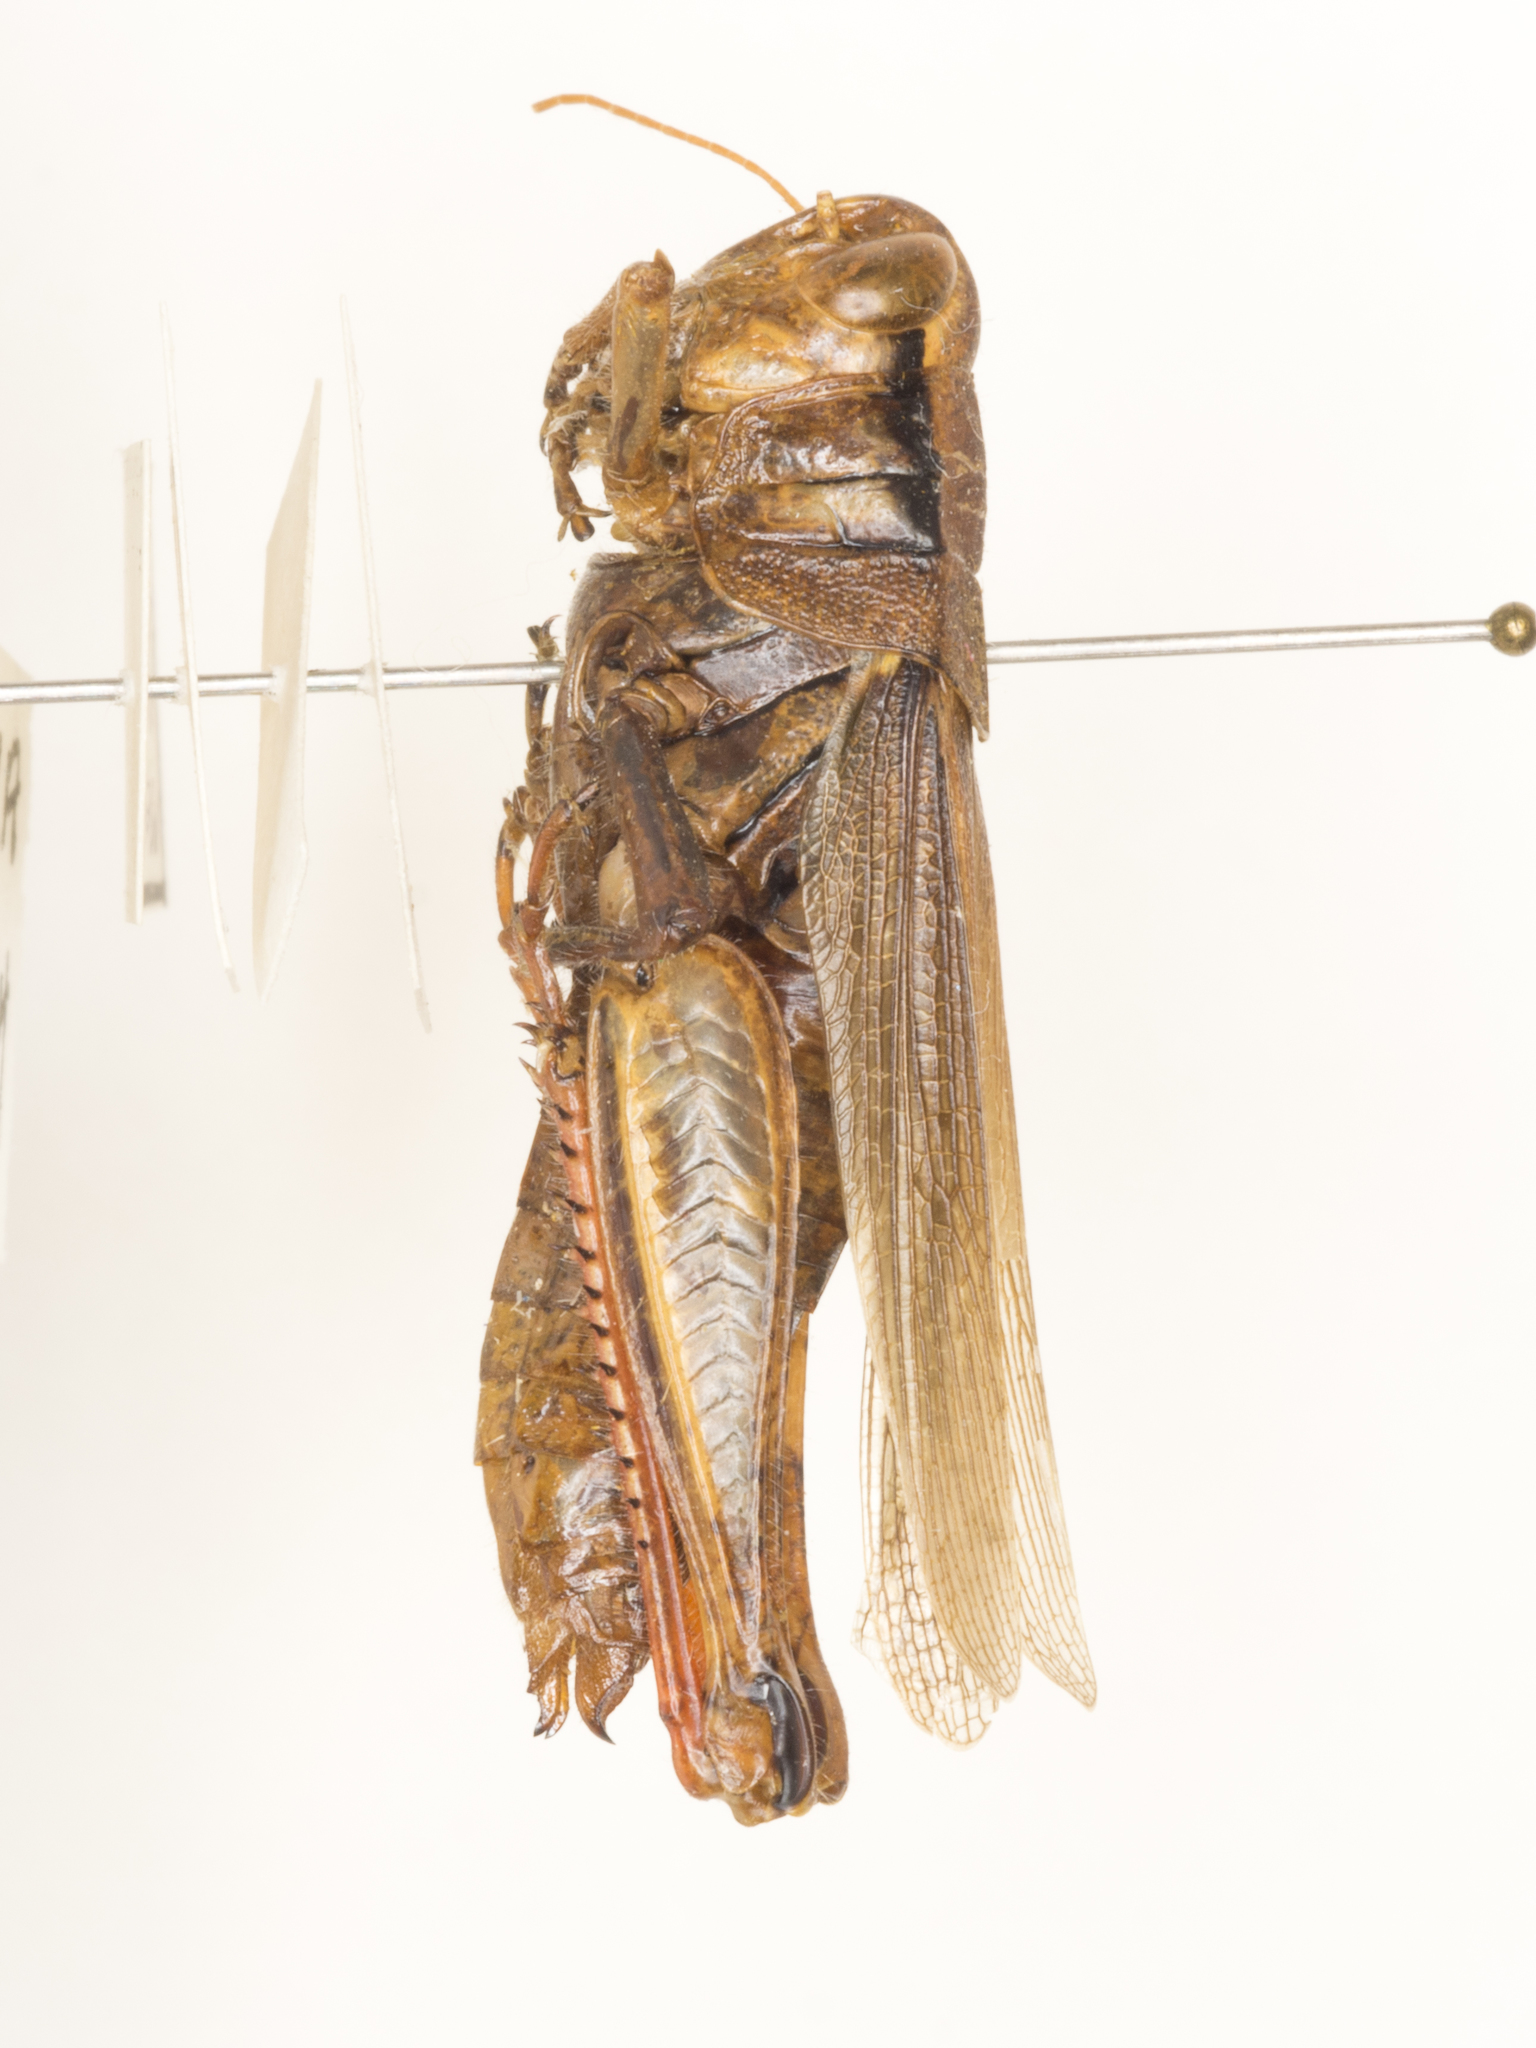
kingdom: Animalia
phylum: Arthropoda
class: Insecta
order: Orthoptera
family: Acrididae
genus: Melanoplus
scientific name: Melanoplus yarrowii
